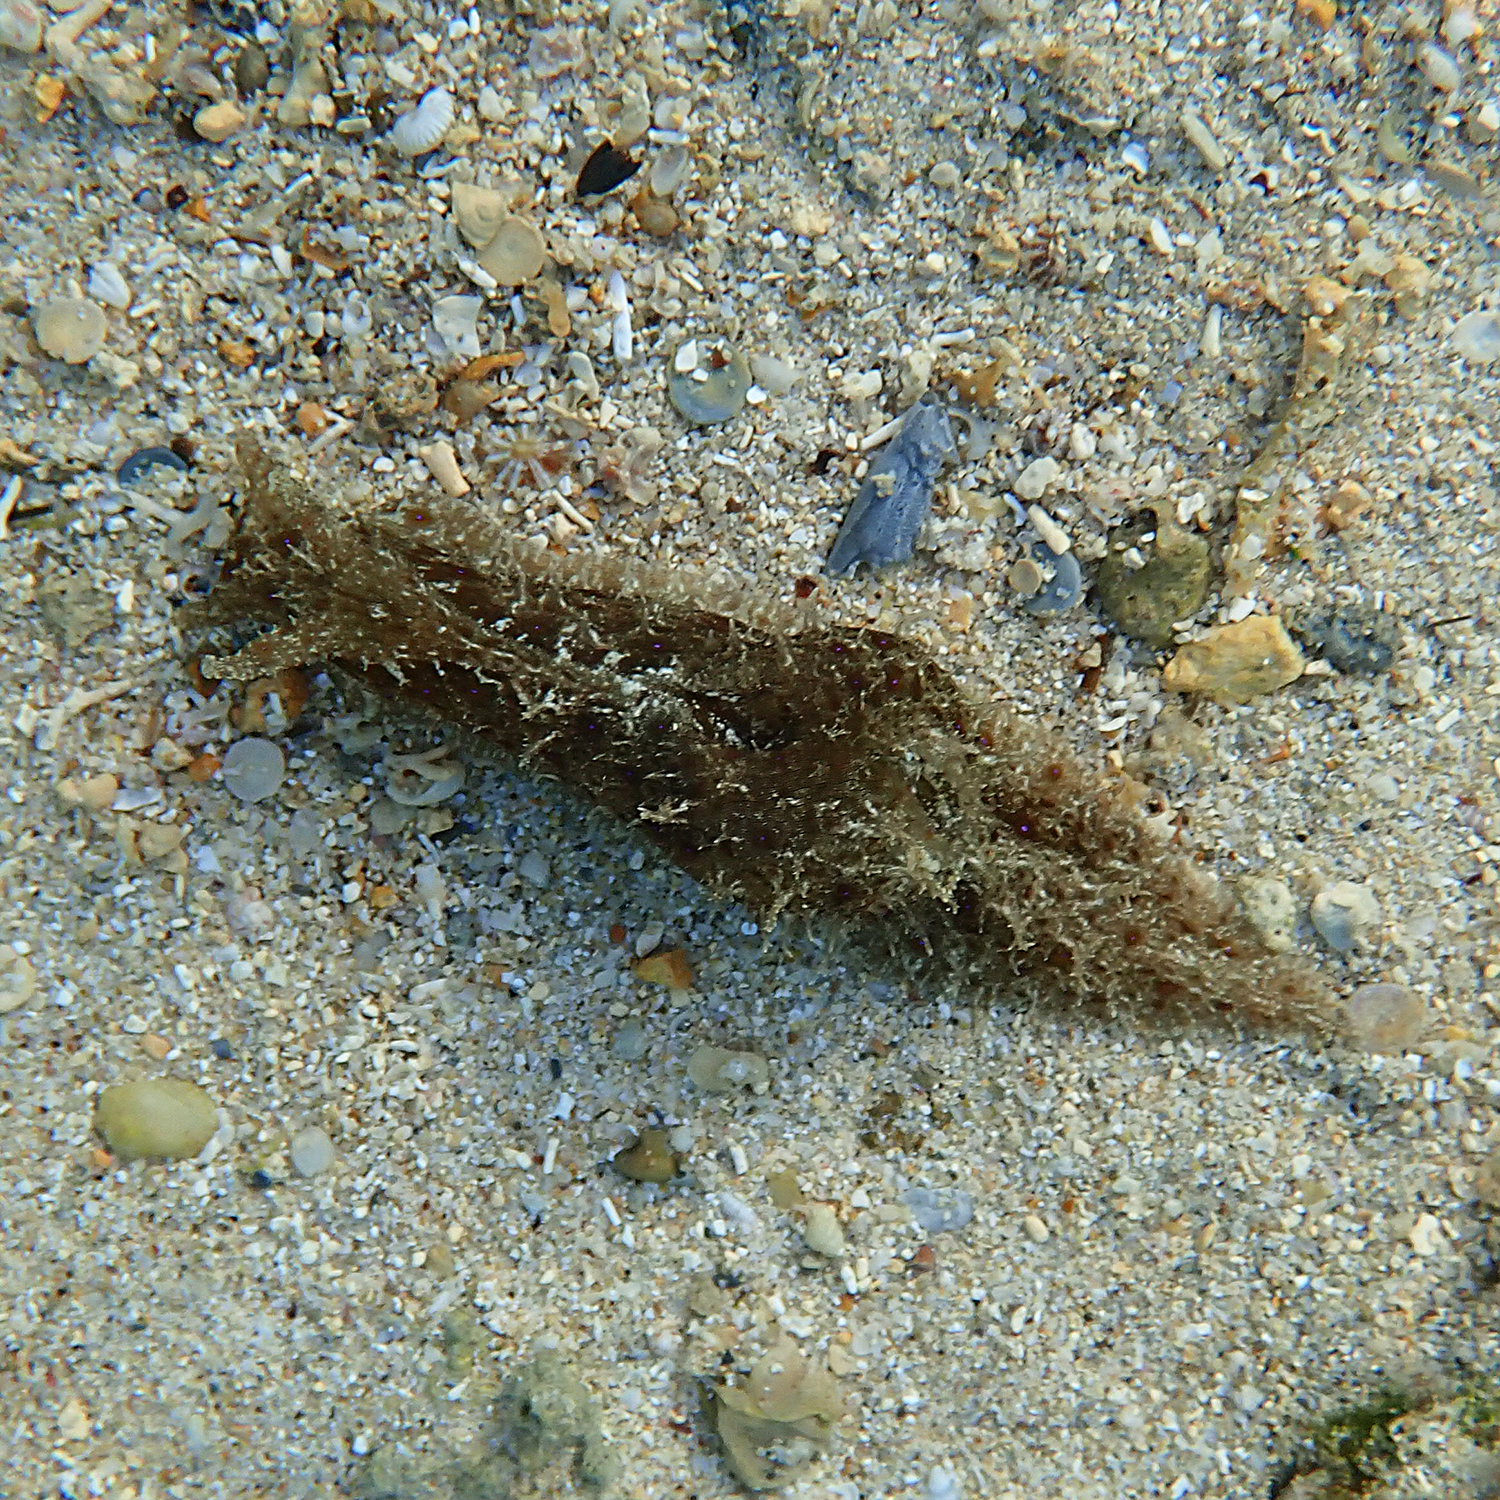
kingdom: Animalia
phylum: Mollusca
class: Gastropoda
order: Aplysiida
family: Aplysiidae
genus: Stylocheilus
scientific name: Stylocheilus striatus
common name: Striated seahare
